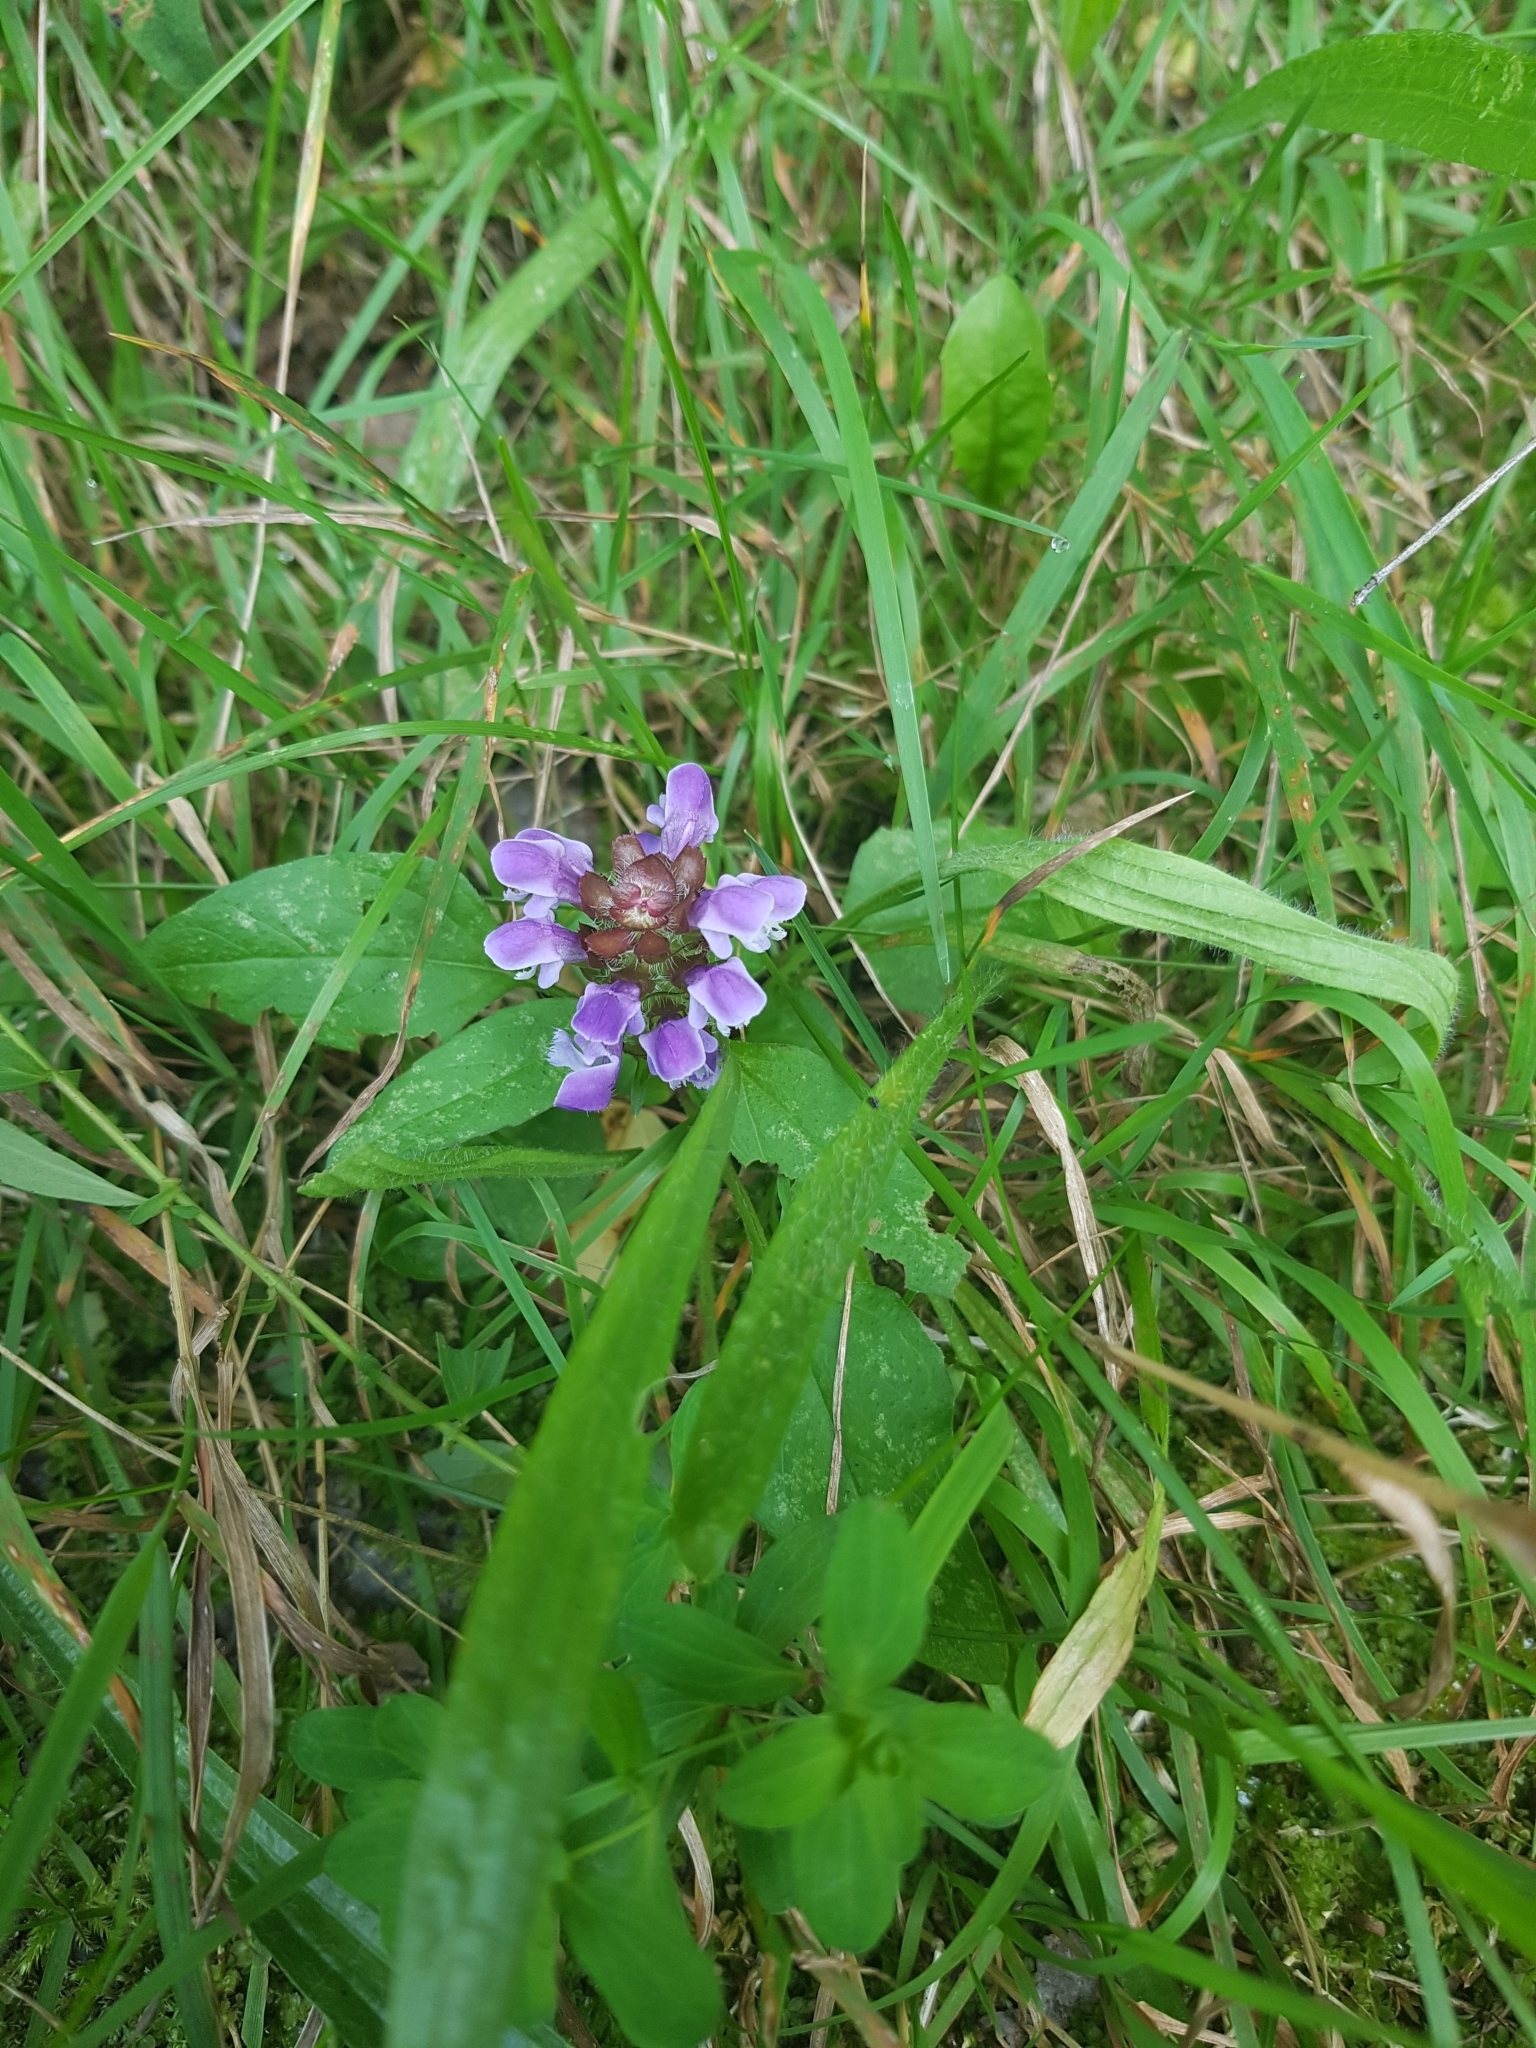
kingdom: Plantae
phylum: Tracheophyta
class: Magnoliopsida
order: Lamiales
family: Lamiaceae
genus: Prunella
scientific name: Prunella vulgaris
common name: Heal-all
